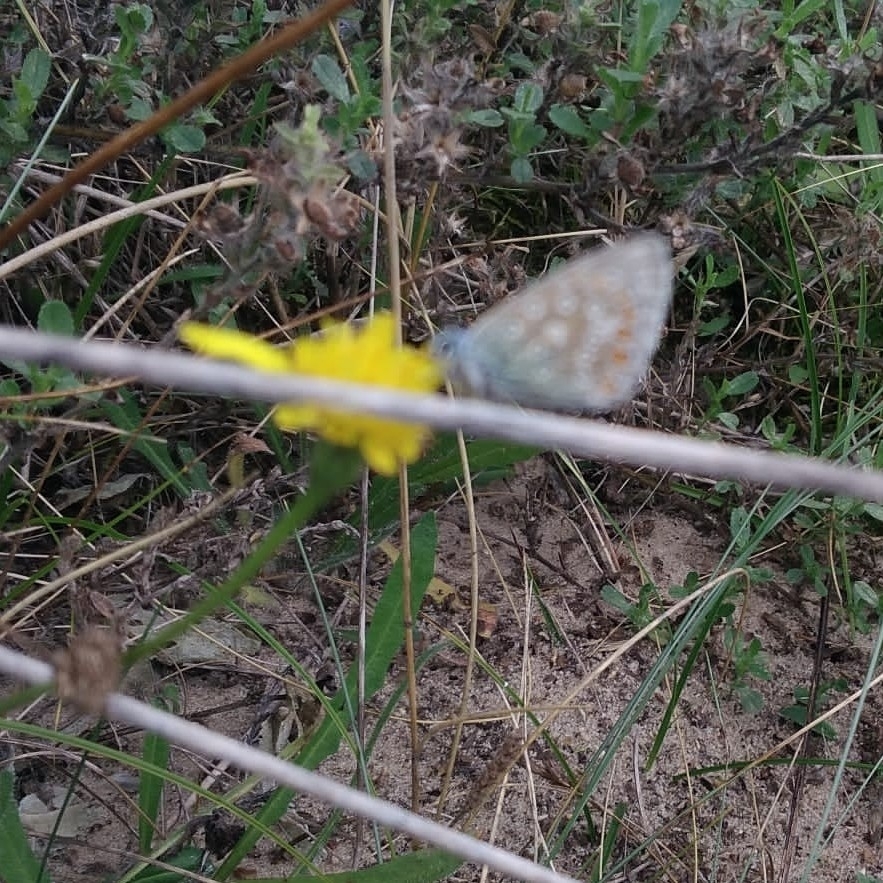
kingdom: Animalia
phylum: Arthropoda
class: Insecta
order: Lepidoptera
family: Lycaenidae
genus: Polyommatus
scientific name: Polyommatus icarus
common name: Common blue
